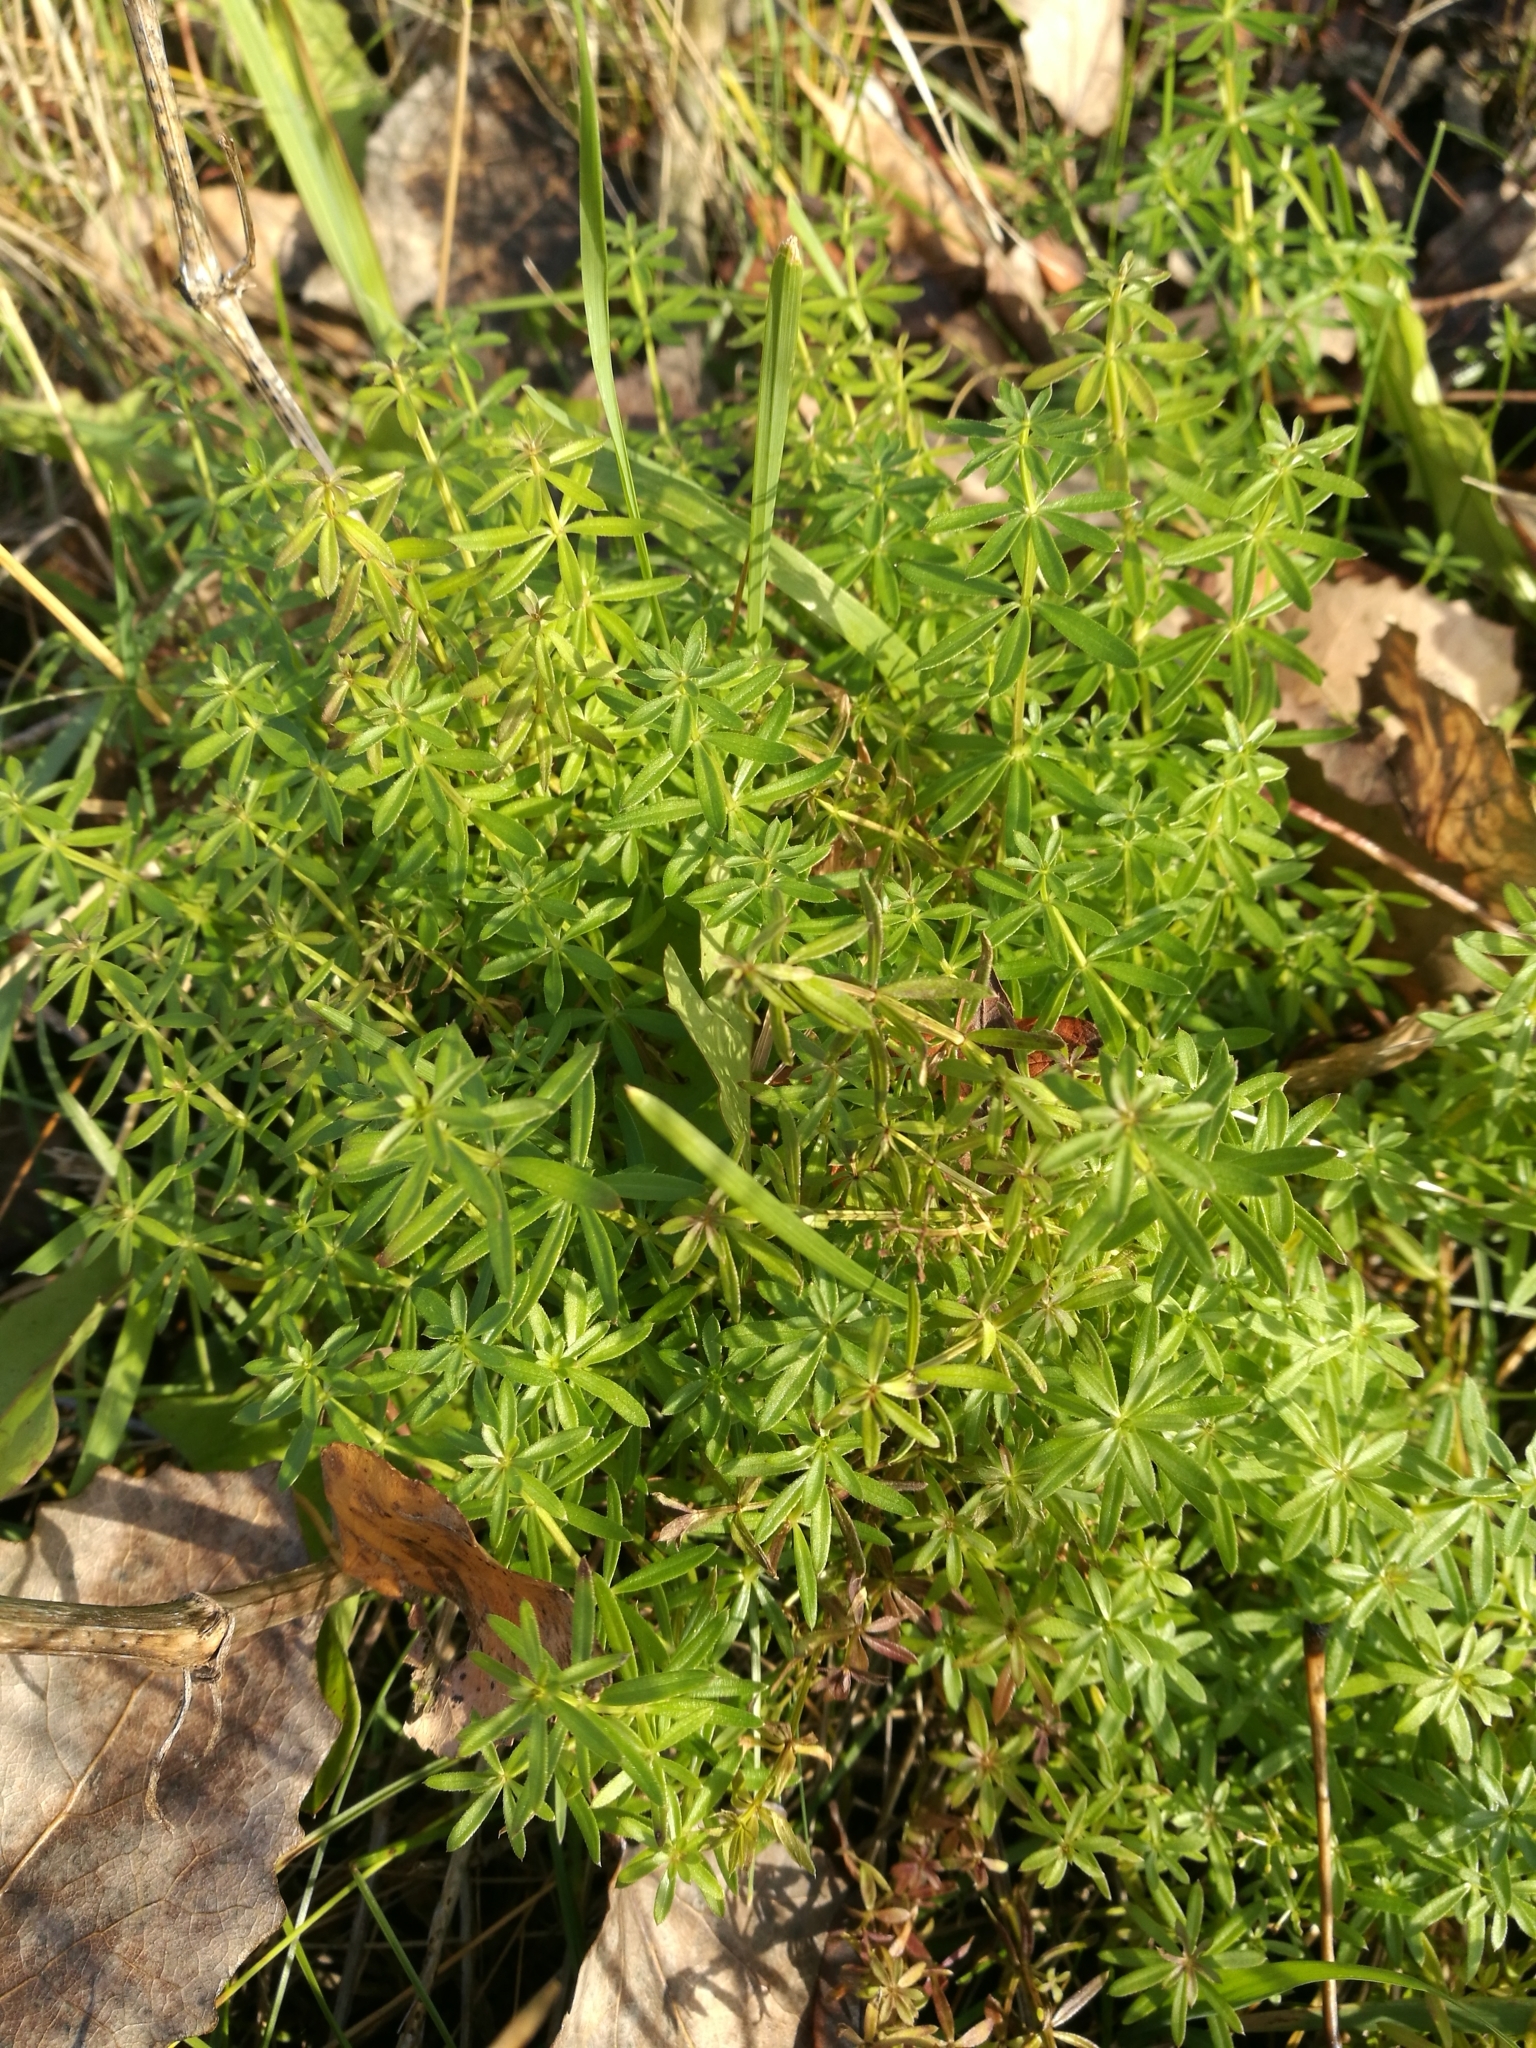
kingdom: Plantae
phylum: Tracheophyta
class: Magnoliopsida
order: Gentianales
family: Rubiaceae
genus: Galium
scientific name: Galium aparine
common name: Cleavers
